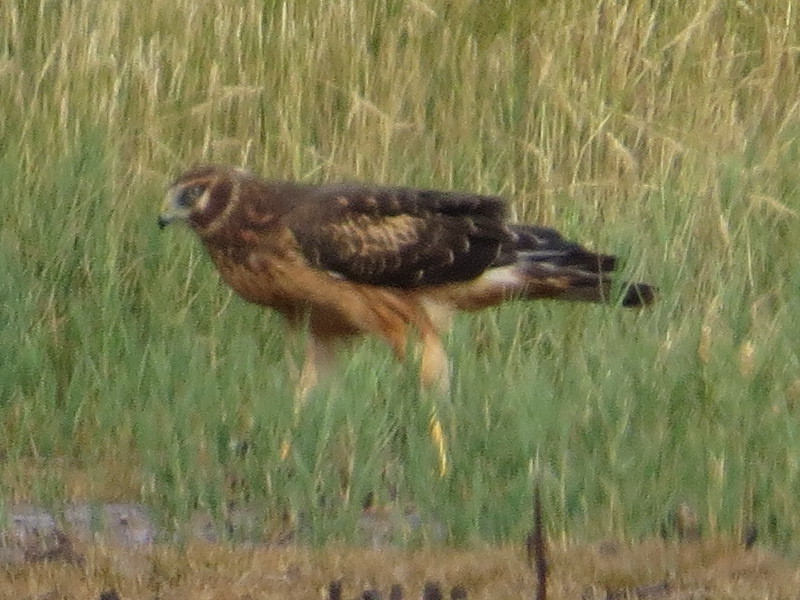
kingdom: Animalia
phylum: Chordata
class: Aves
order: Accipitriformes
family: Accipitridae
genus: Circus
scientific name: Circus cyaneus
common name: Hen harrier
